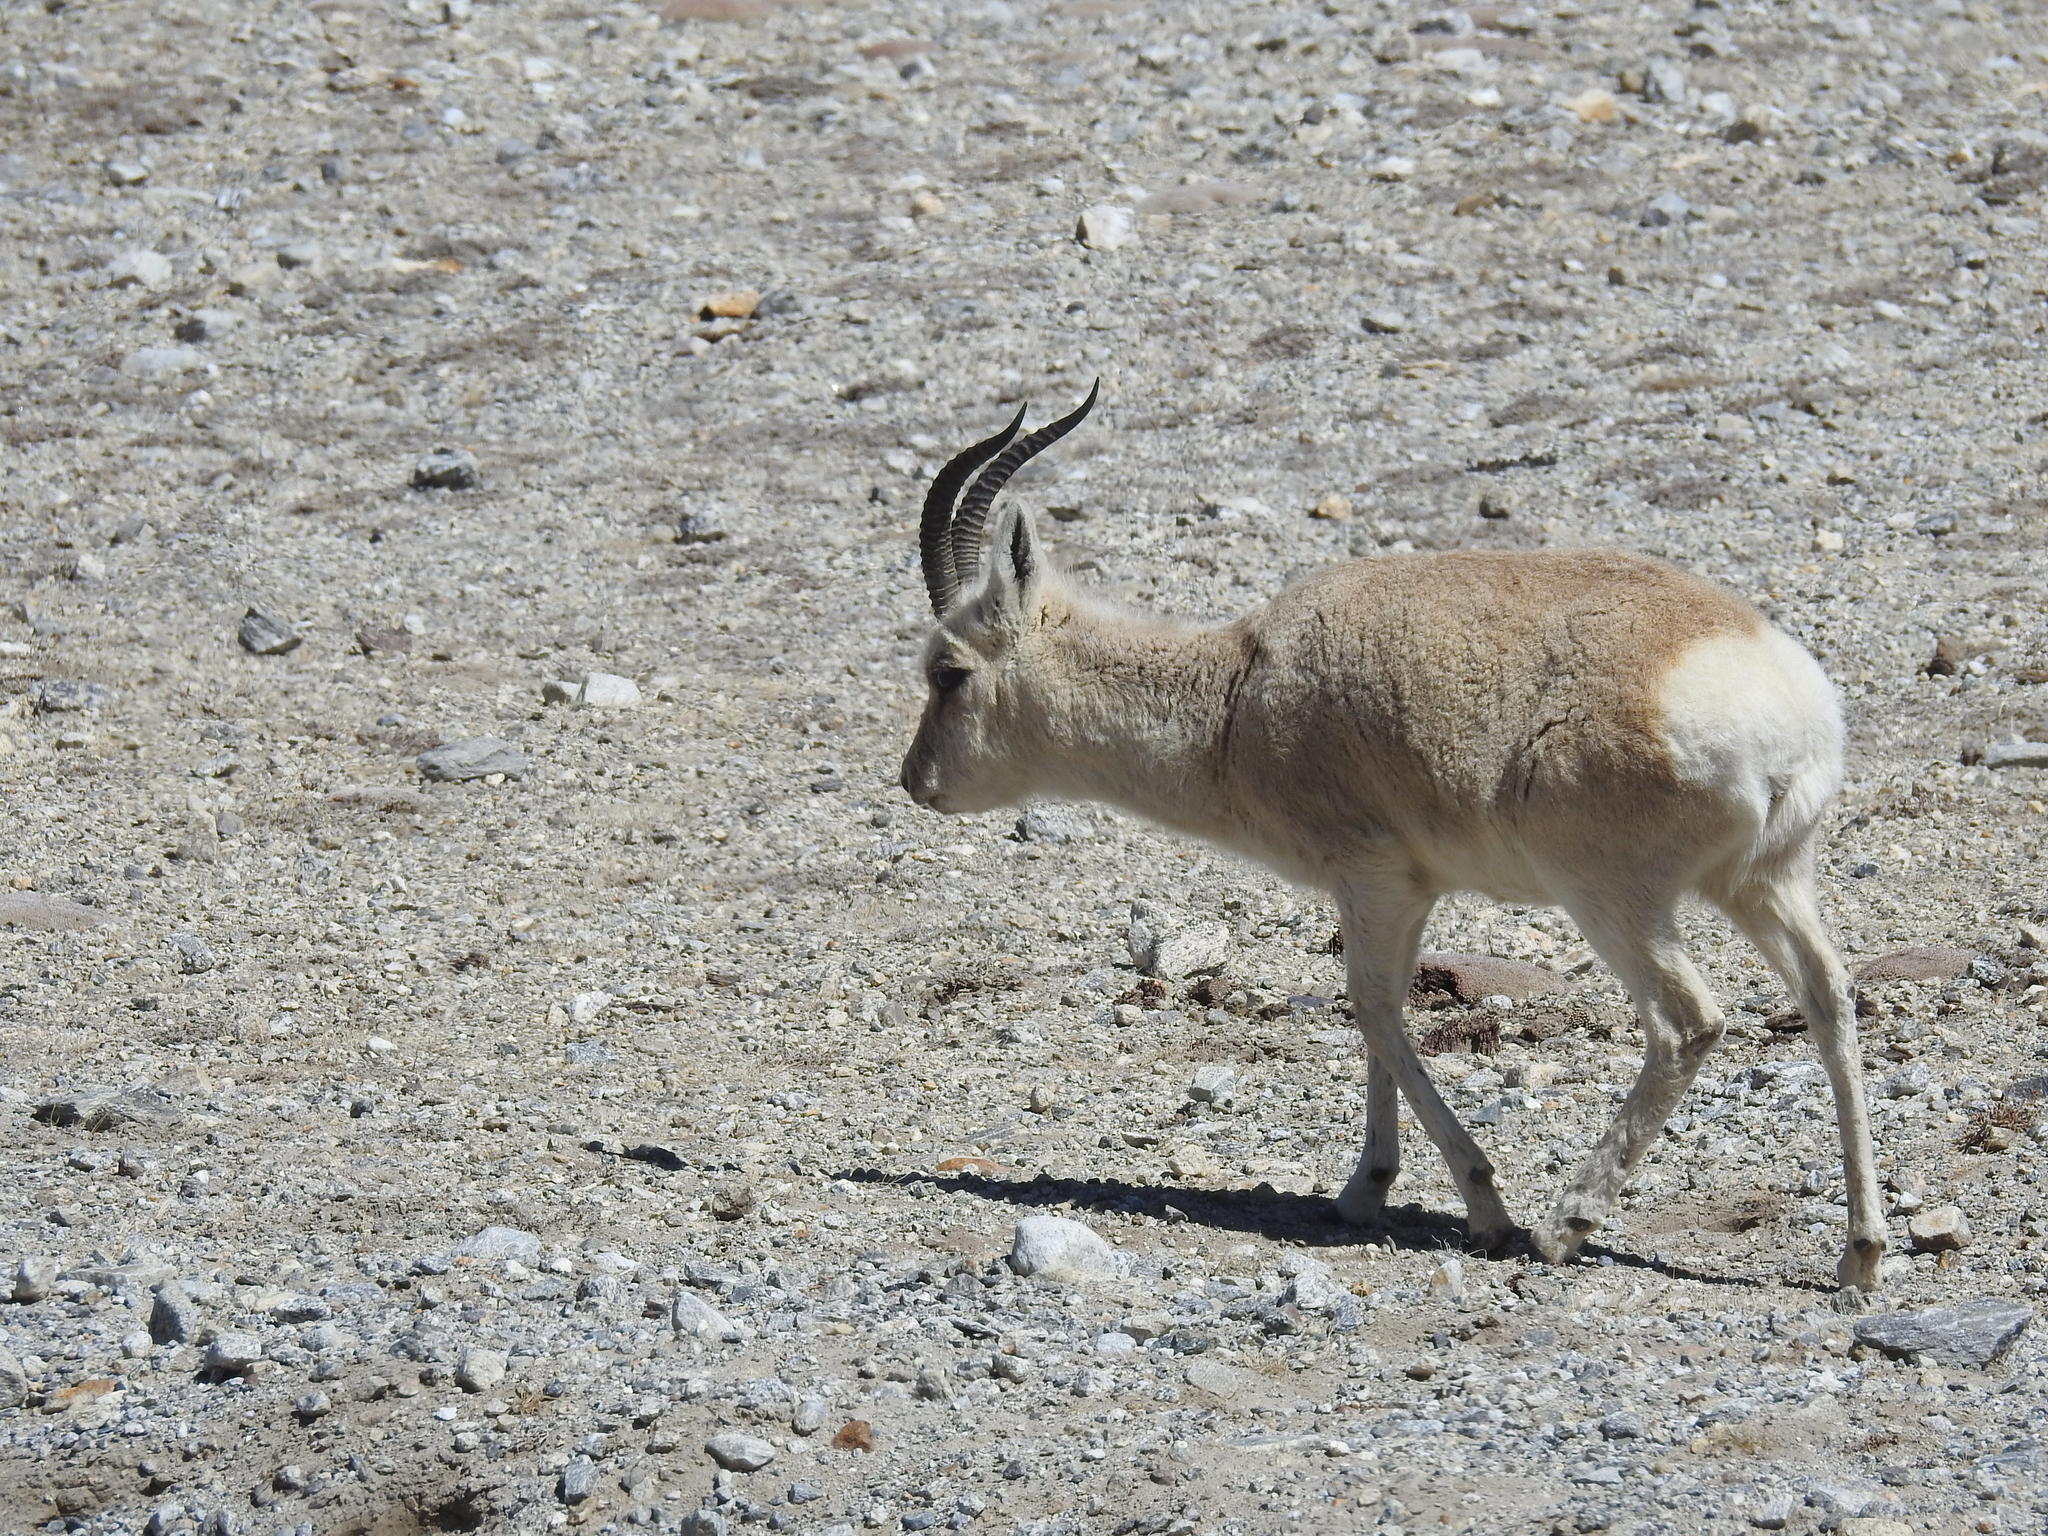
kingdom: Animalia
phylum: Chordata
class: Mammalia
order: Artiodactyla
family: Bovidae
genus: Procapra
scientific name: Procapra picticaudata
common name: Tibetan gazelle
